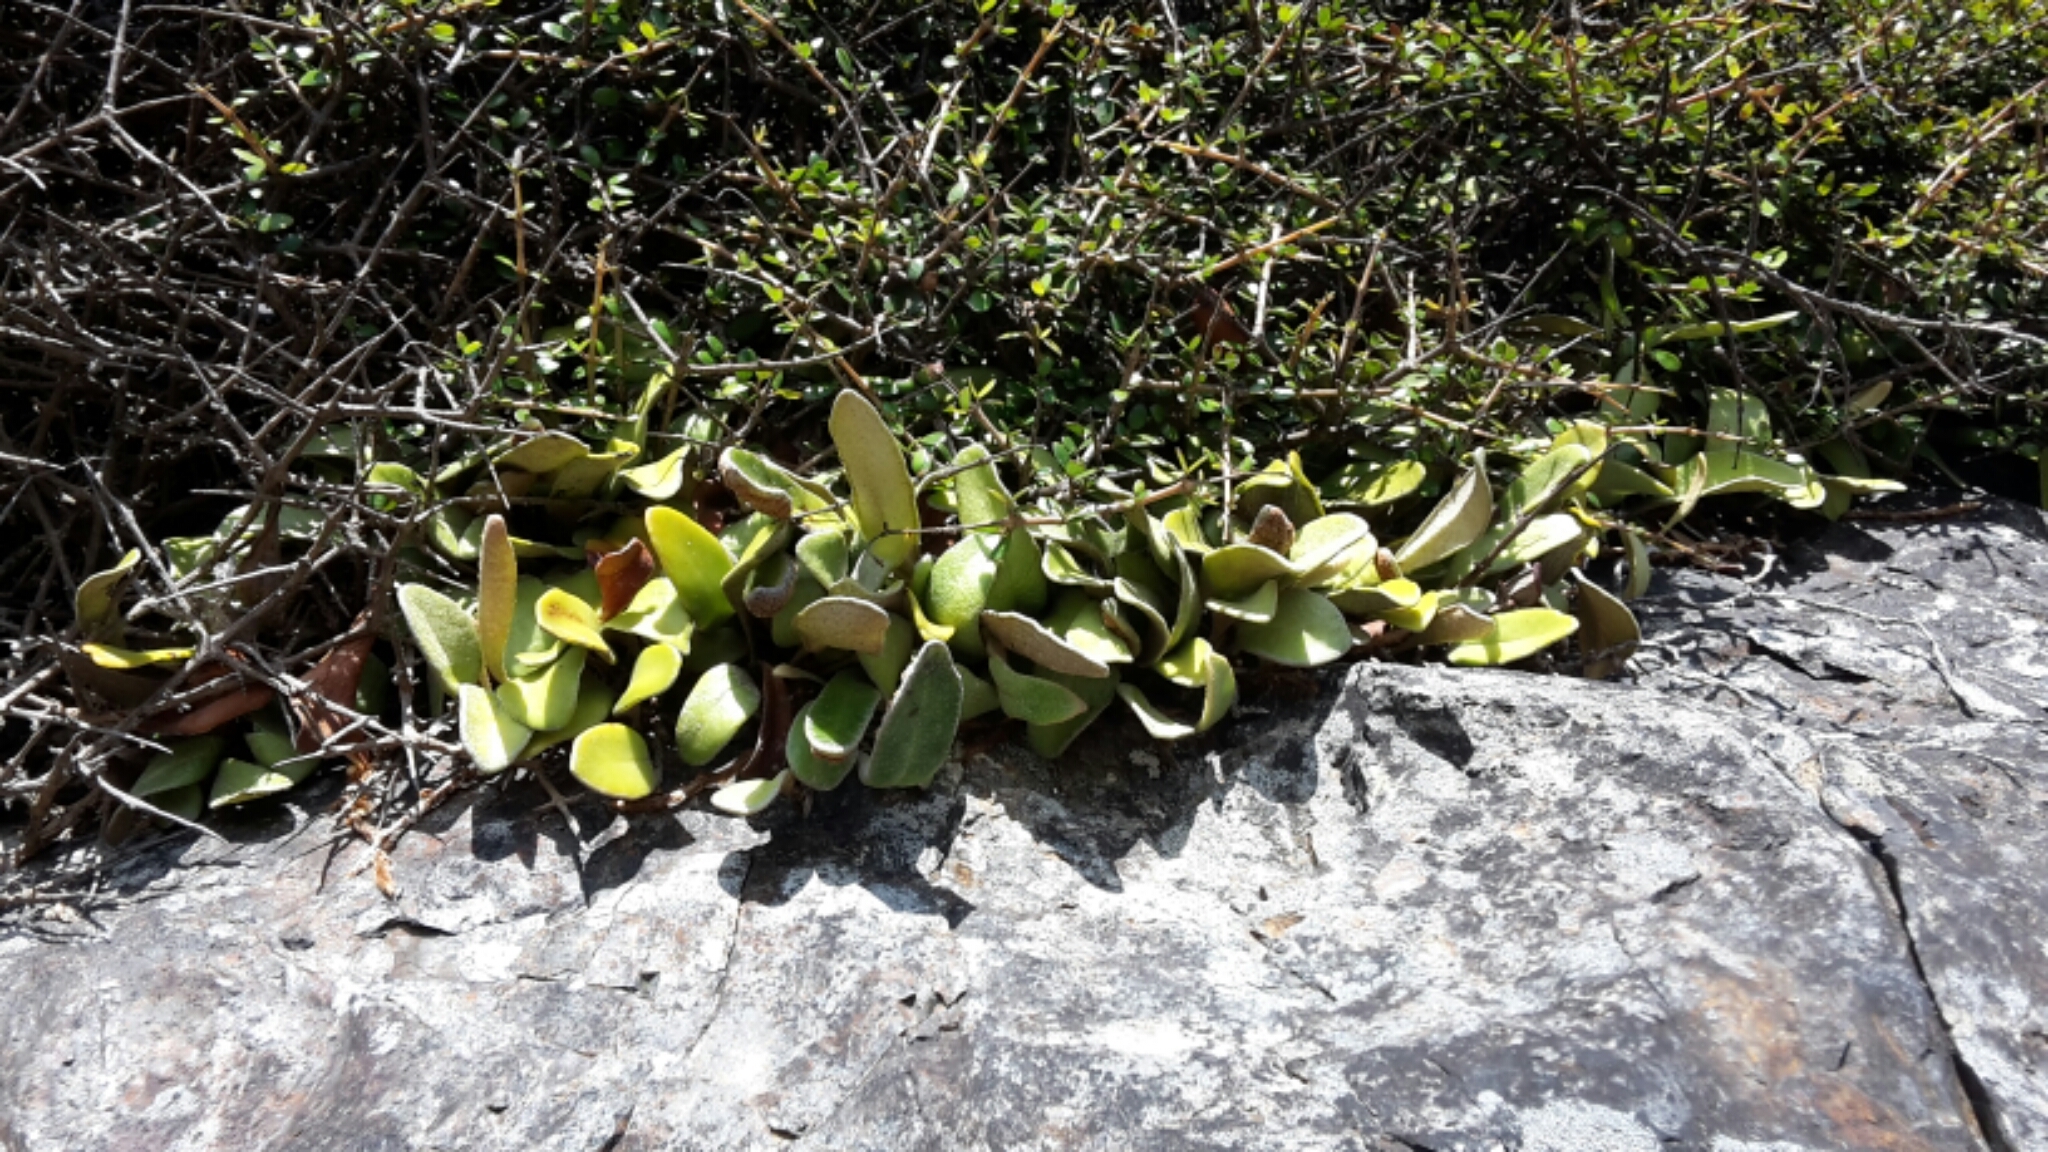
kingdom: Plantae
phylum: Tracheophyta
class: Polypodiopsida
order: Polypodiales
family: Polypodiaceae
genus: Pyrrosia
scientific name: Pyrrosia eleagnifolia
